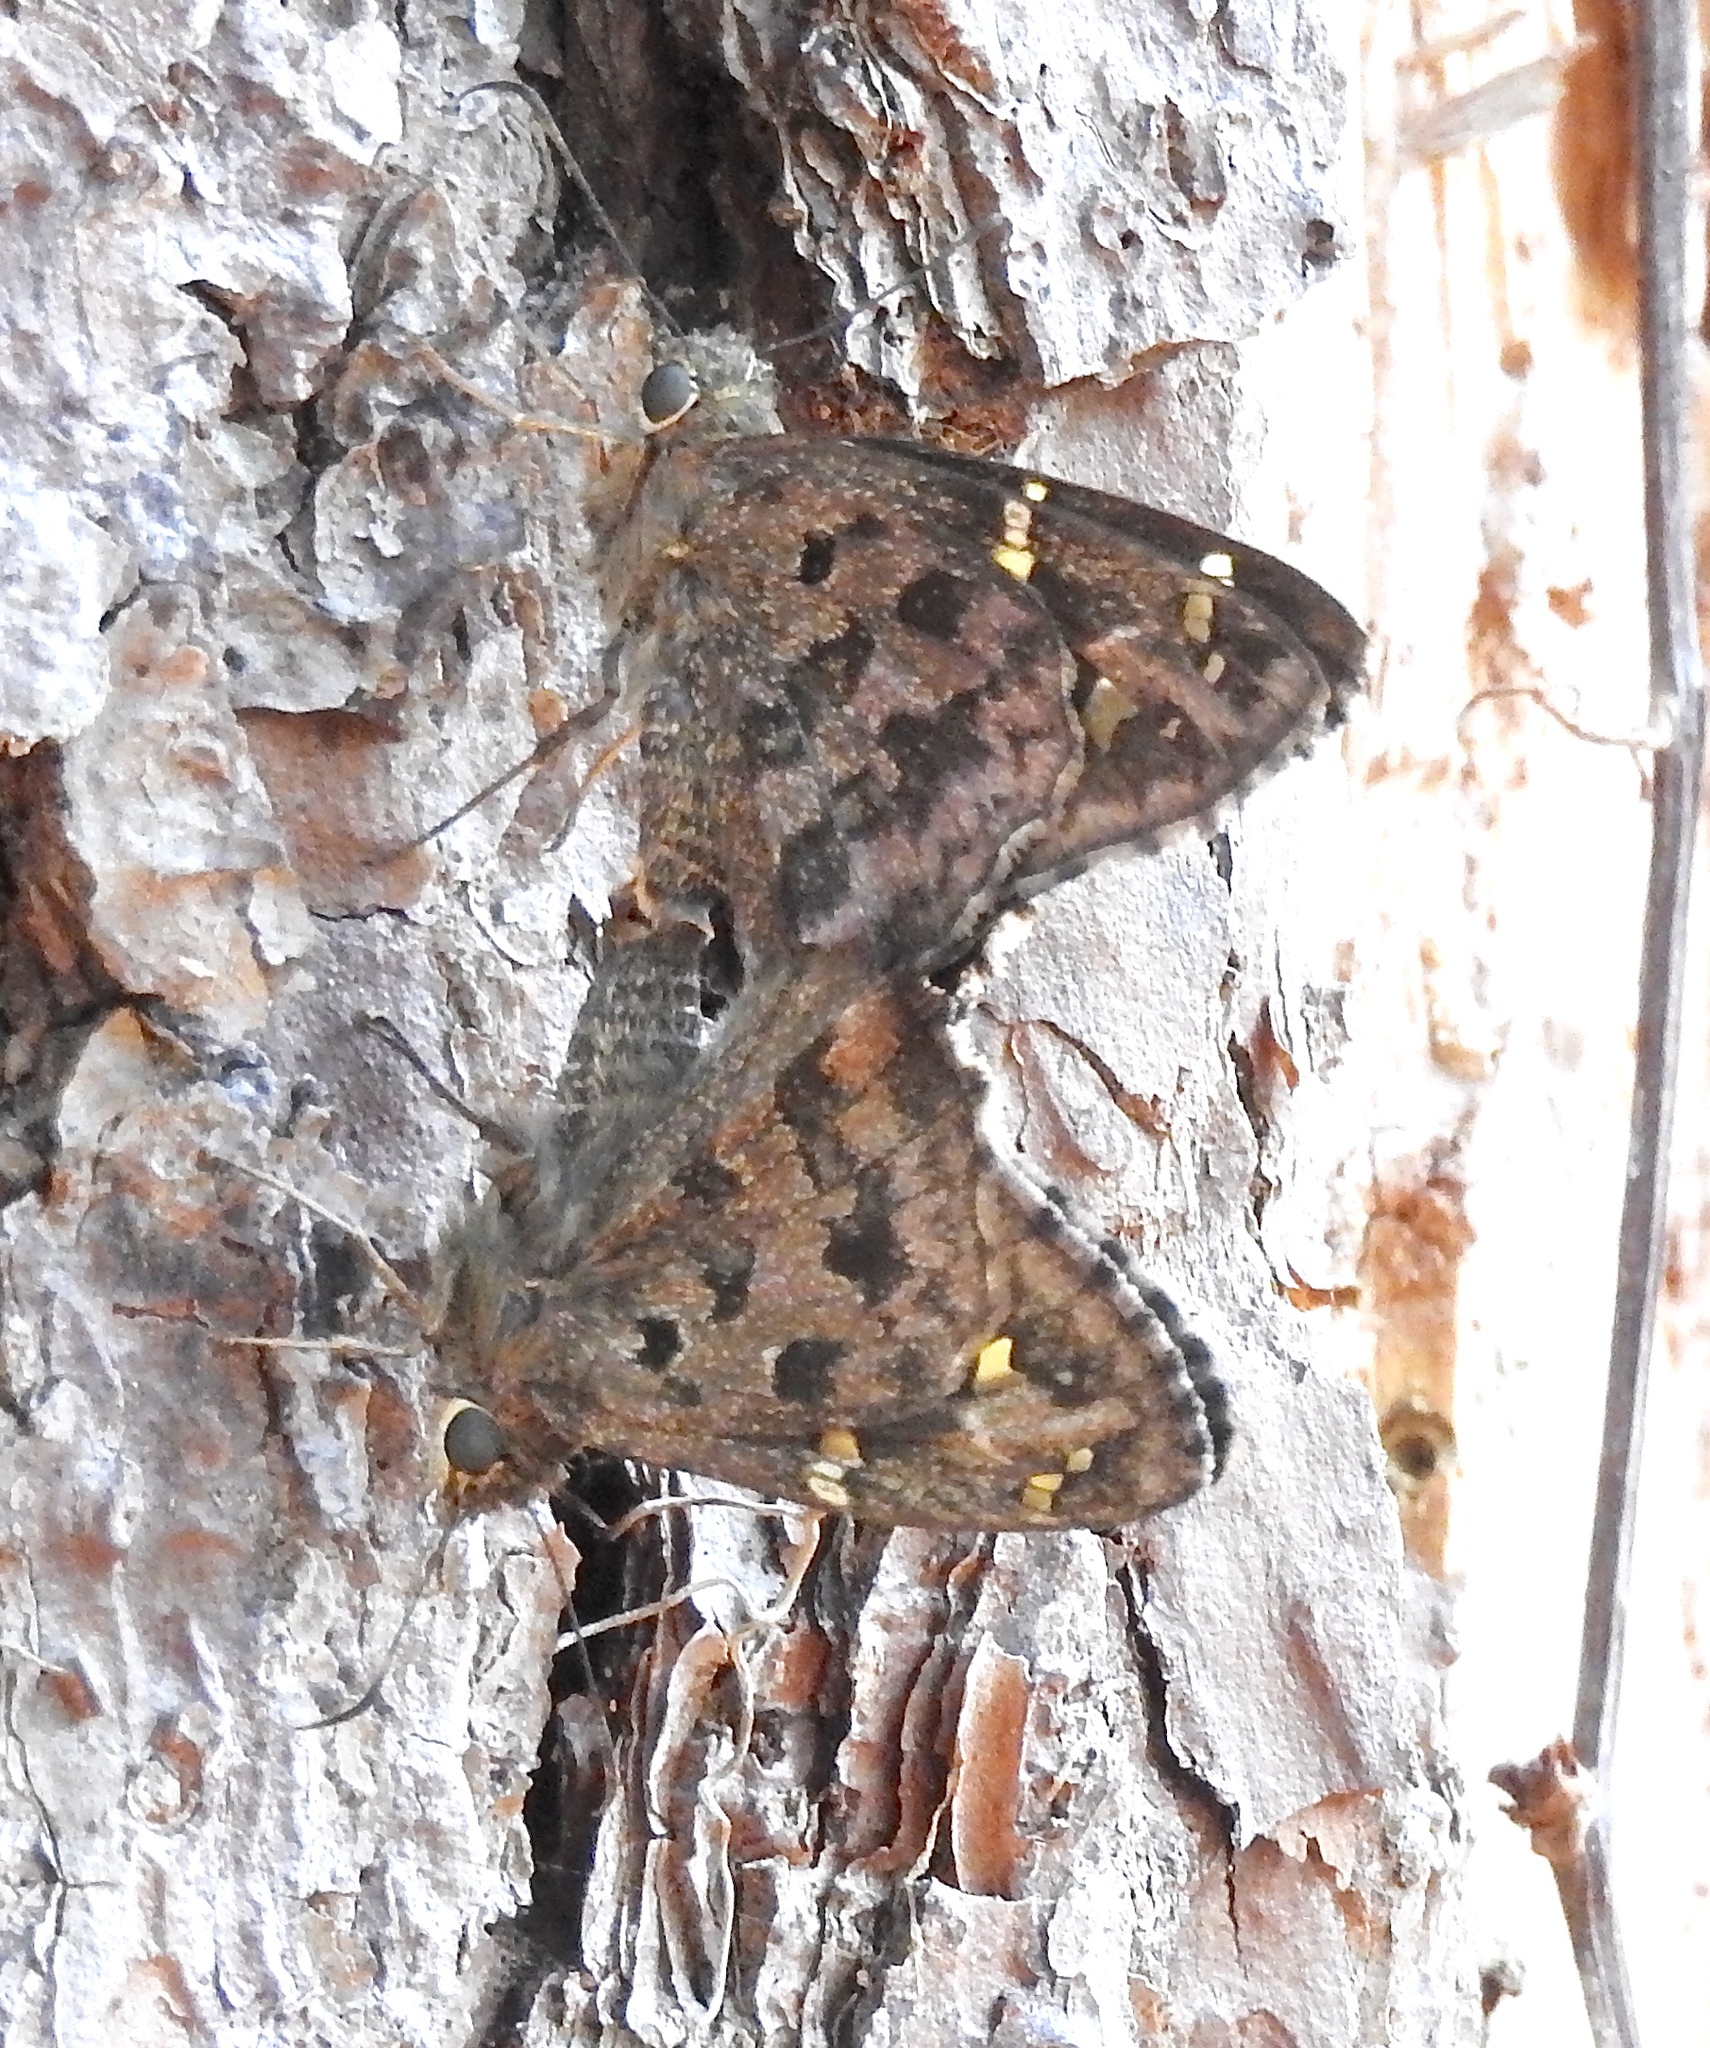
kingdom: Animalia
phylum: Arthropoda
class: Insecta
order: Lepidoptera
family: Hesperiidae
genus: Thorybes
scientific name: Thorybes
